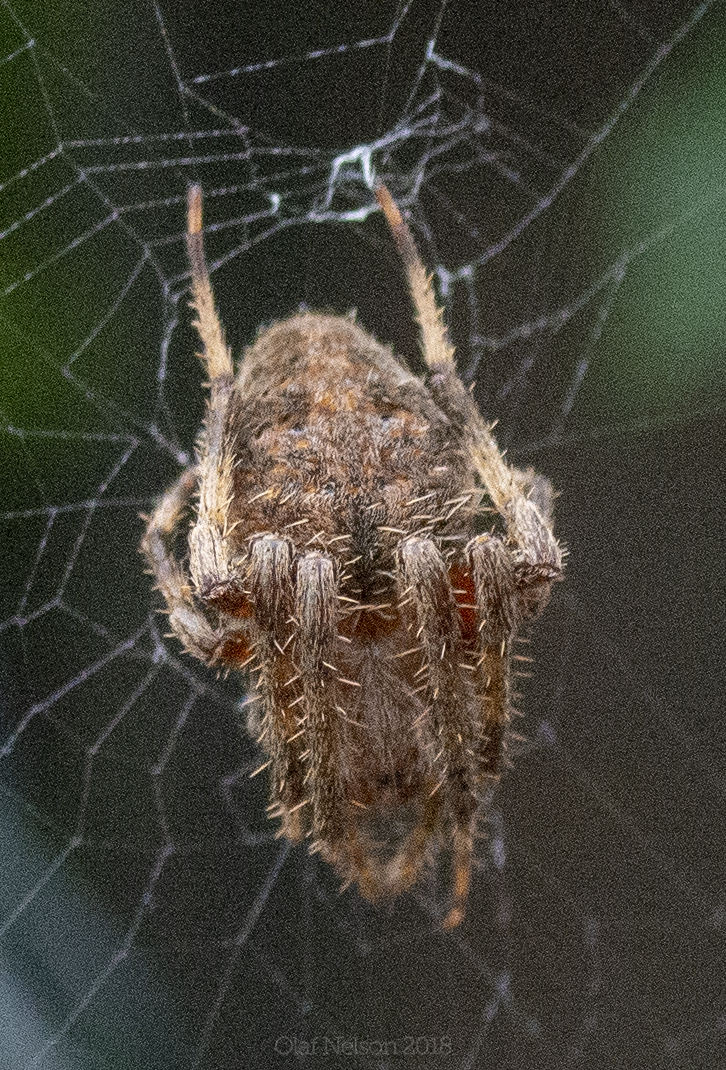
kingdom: Animalia
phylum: Arthropoda
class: Arachnida
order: Araneae
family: Araneidae
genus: Neoscona
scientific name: Neoscona crucifera
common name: Spotted orbweaver
